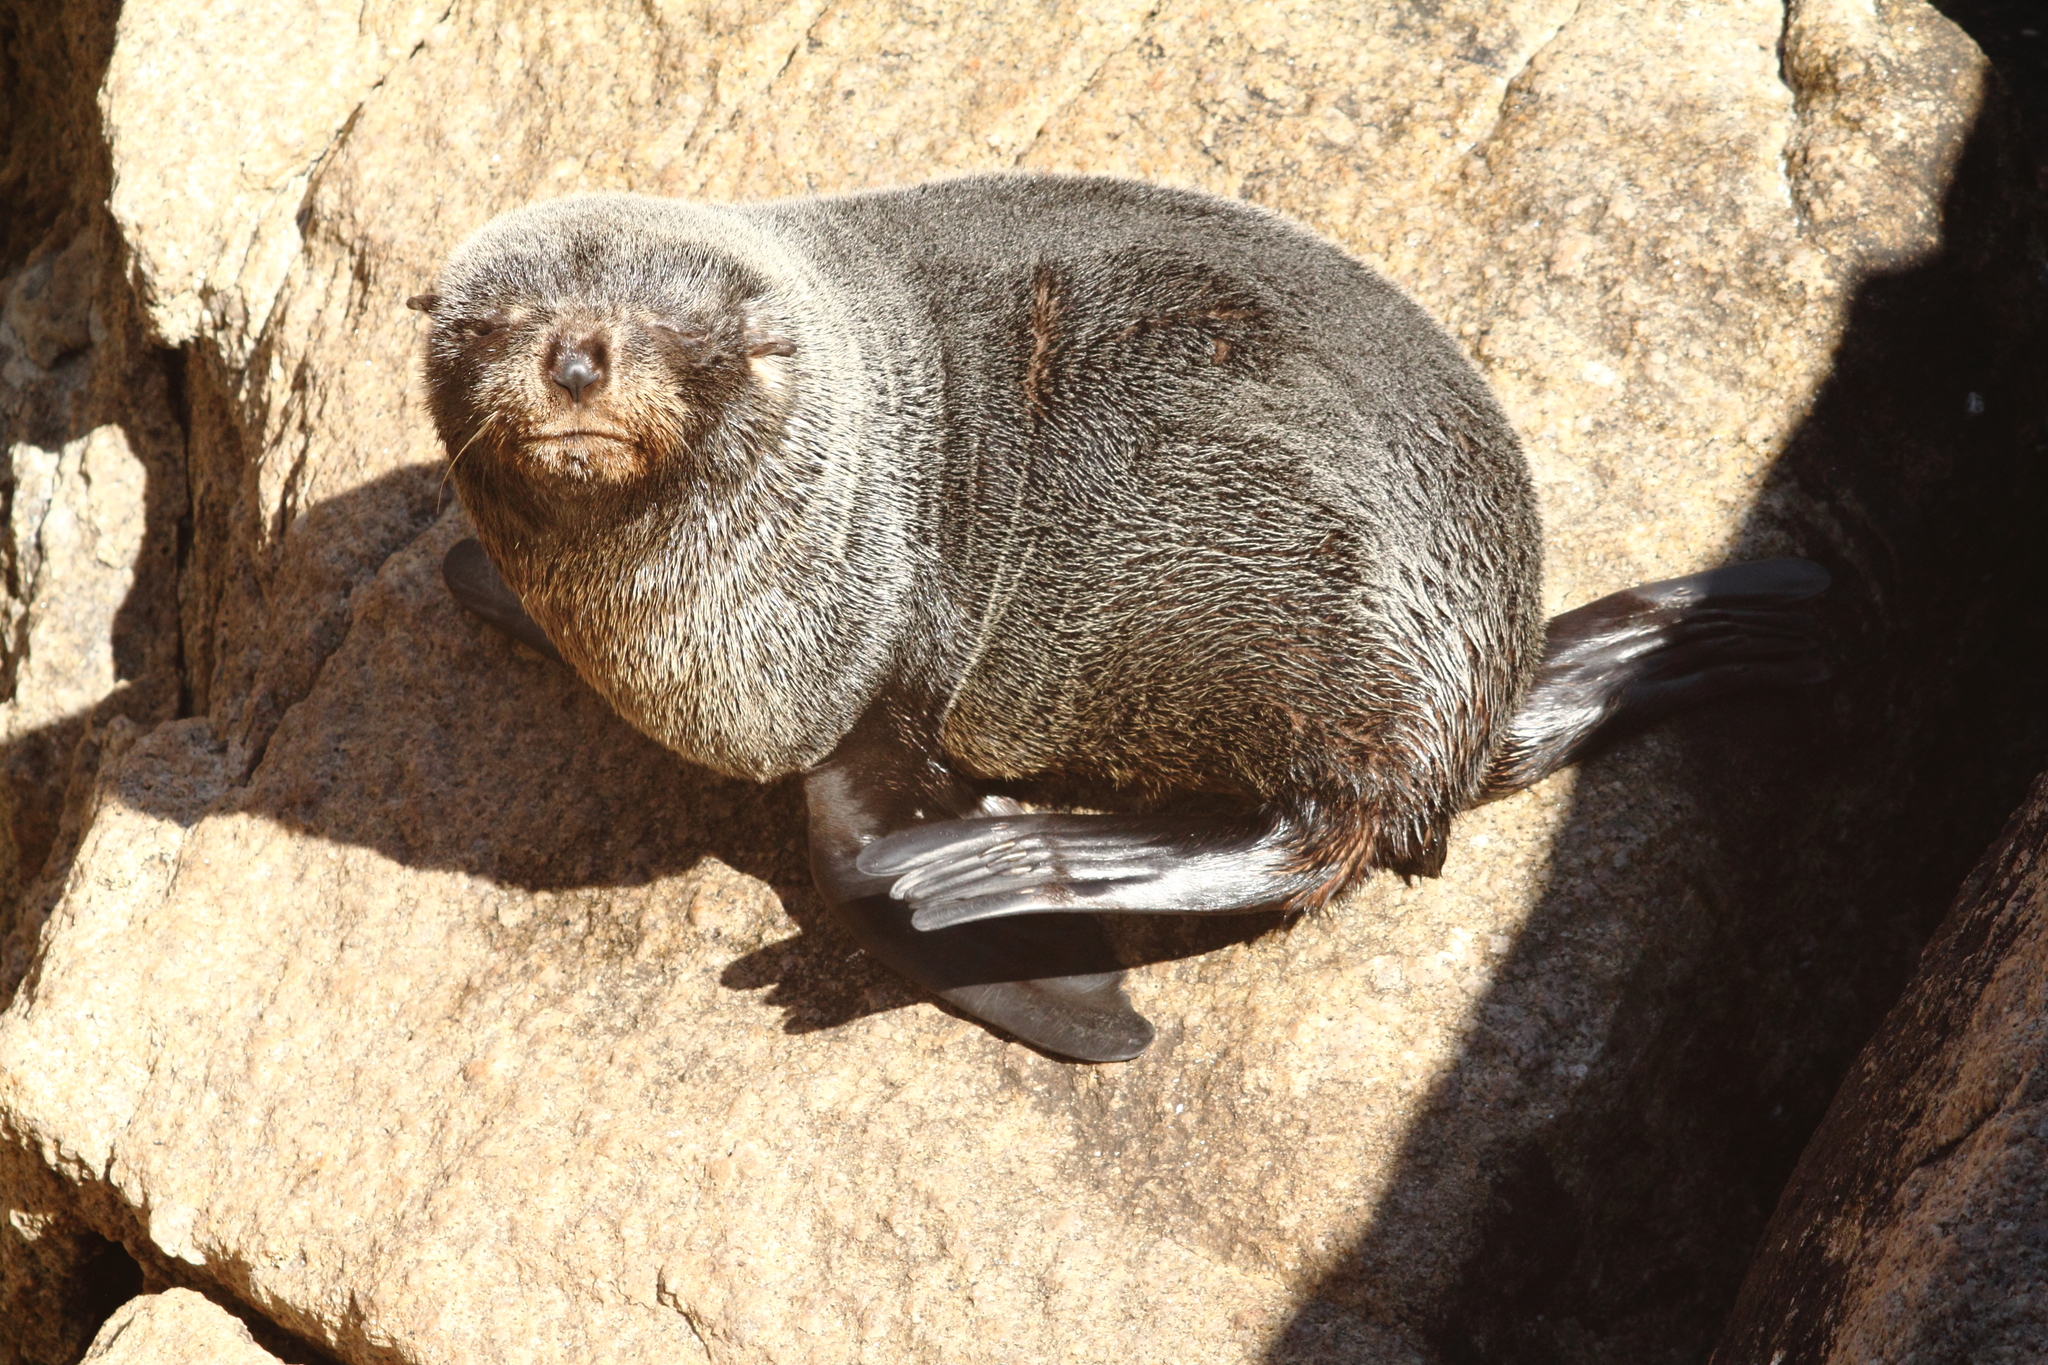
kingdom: Animalia
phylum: Chordata
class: Mammalia
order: Carnivora
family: Otariidae
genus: Arctocephalus
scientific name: Arctocephalus forsteri
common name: New zealand fur seal
